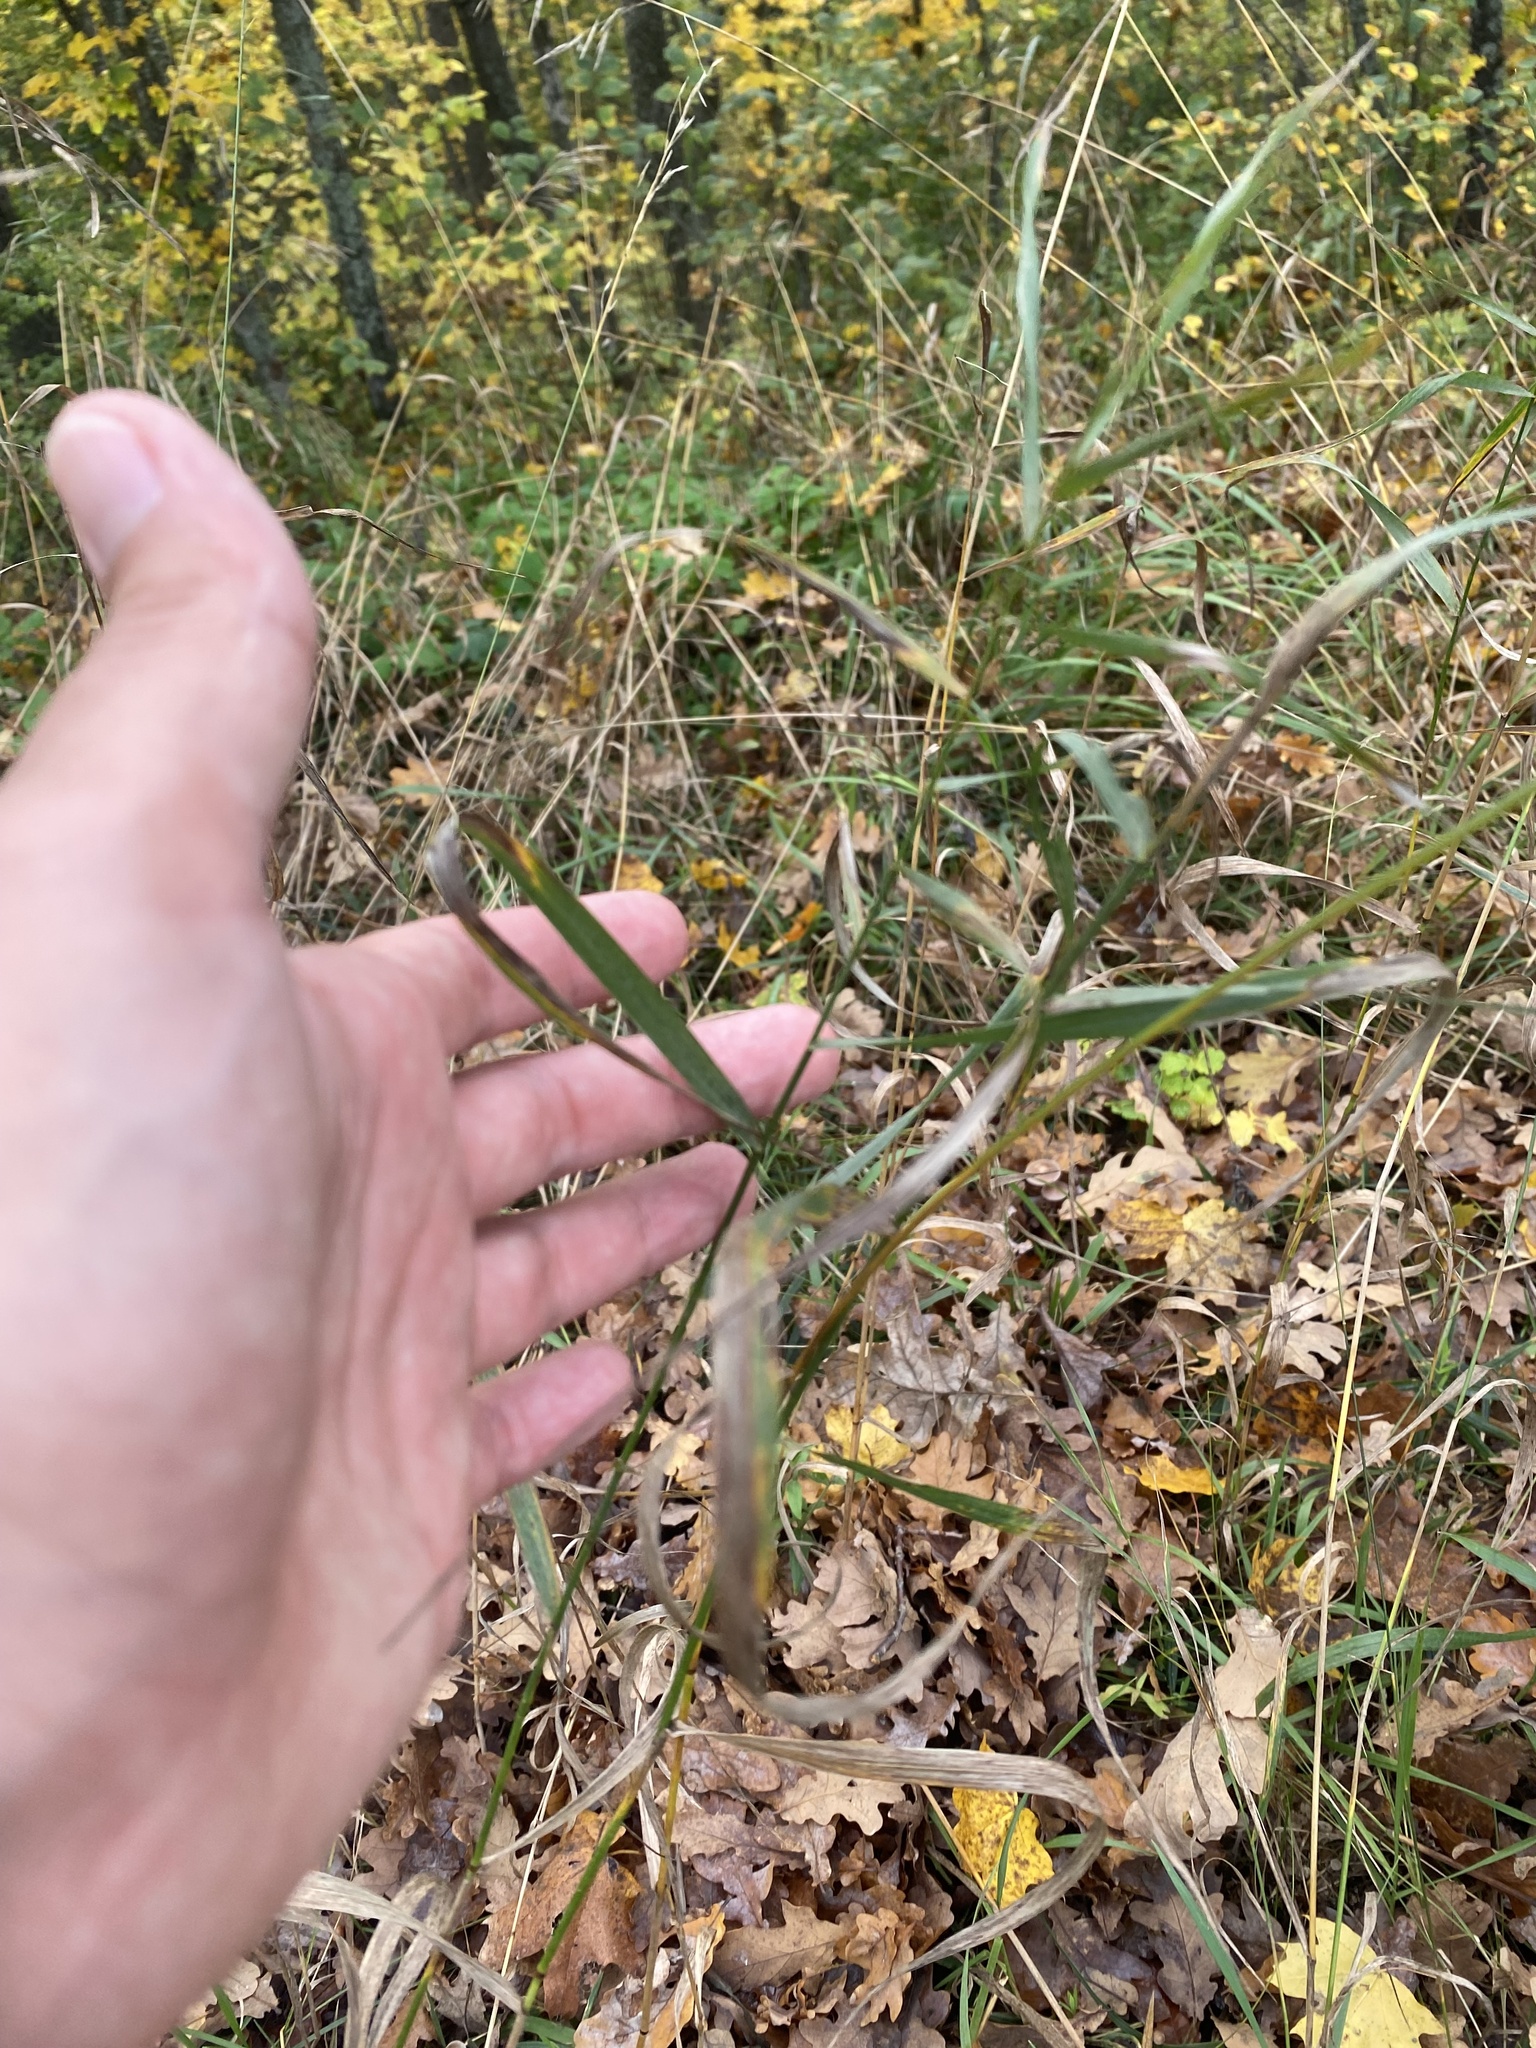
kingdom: Plantae
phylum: Tracheophyta
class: Liliopsida
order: Poales
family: Poaceae
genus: Bromus
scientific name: Bromus inermis
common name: Smooth brome
